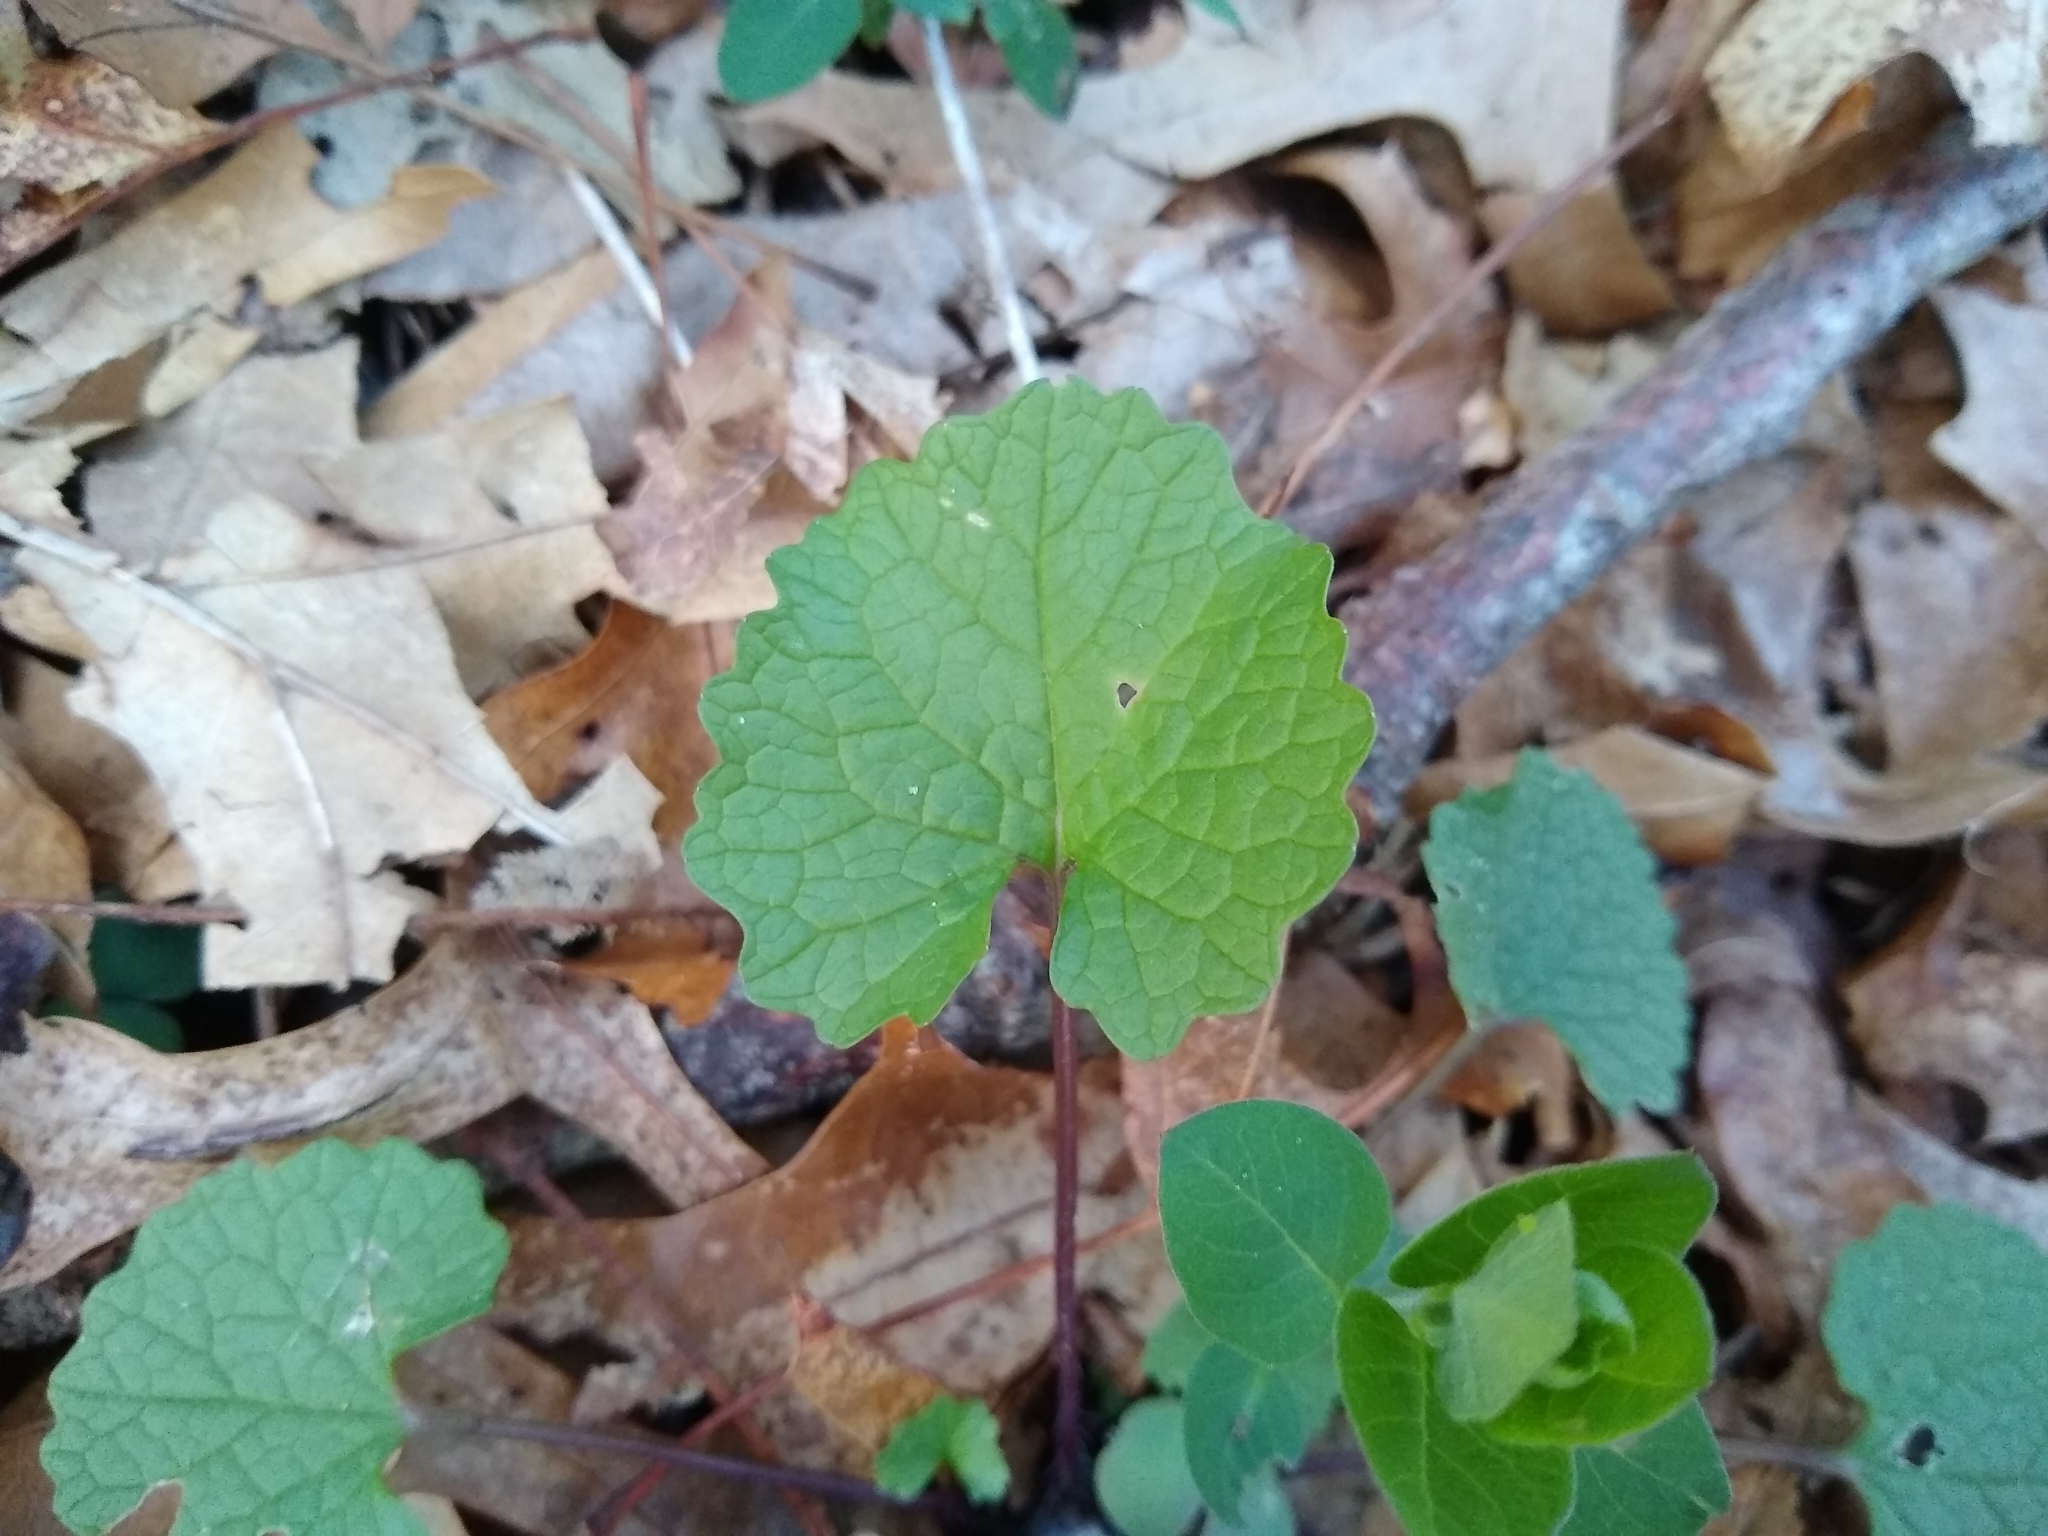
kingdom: Plantae
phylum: Tracheophyta
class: Magnoliopsida
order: Brassicales
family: Brassicaceae
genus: Alliaria
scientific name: Alliaria petiolata
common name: Garlic mustard
